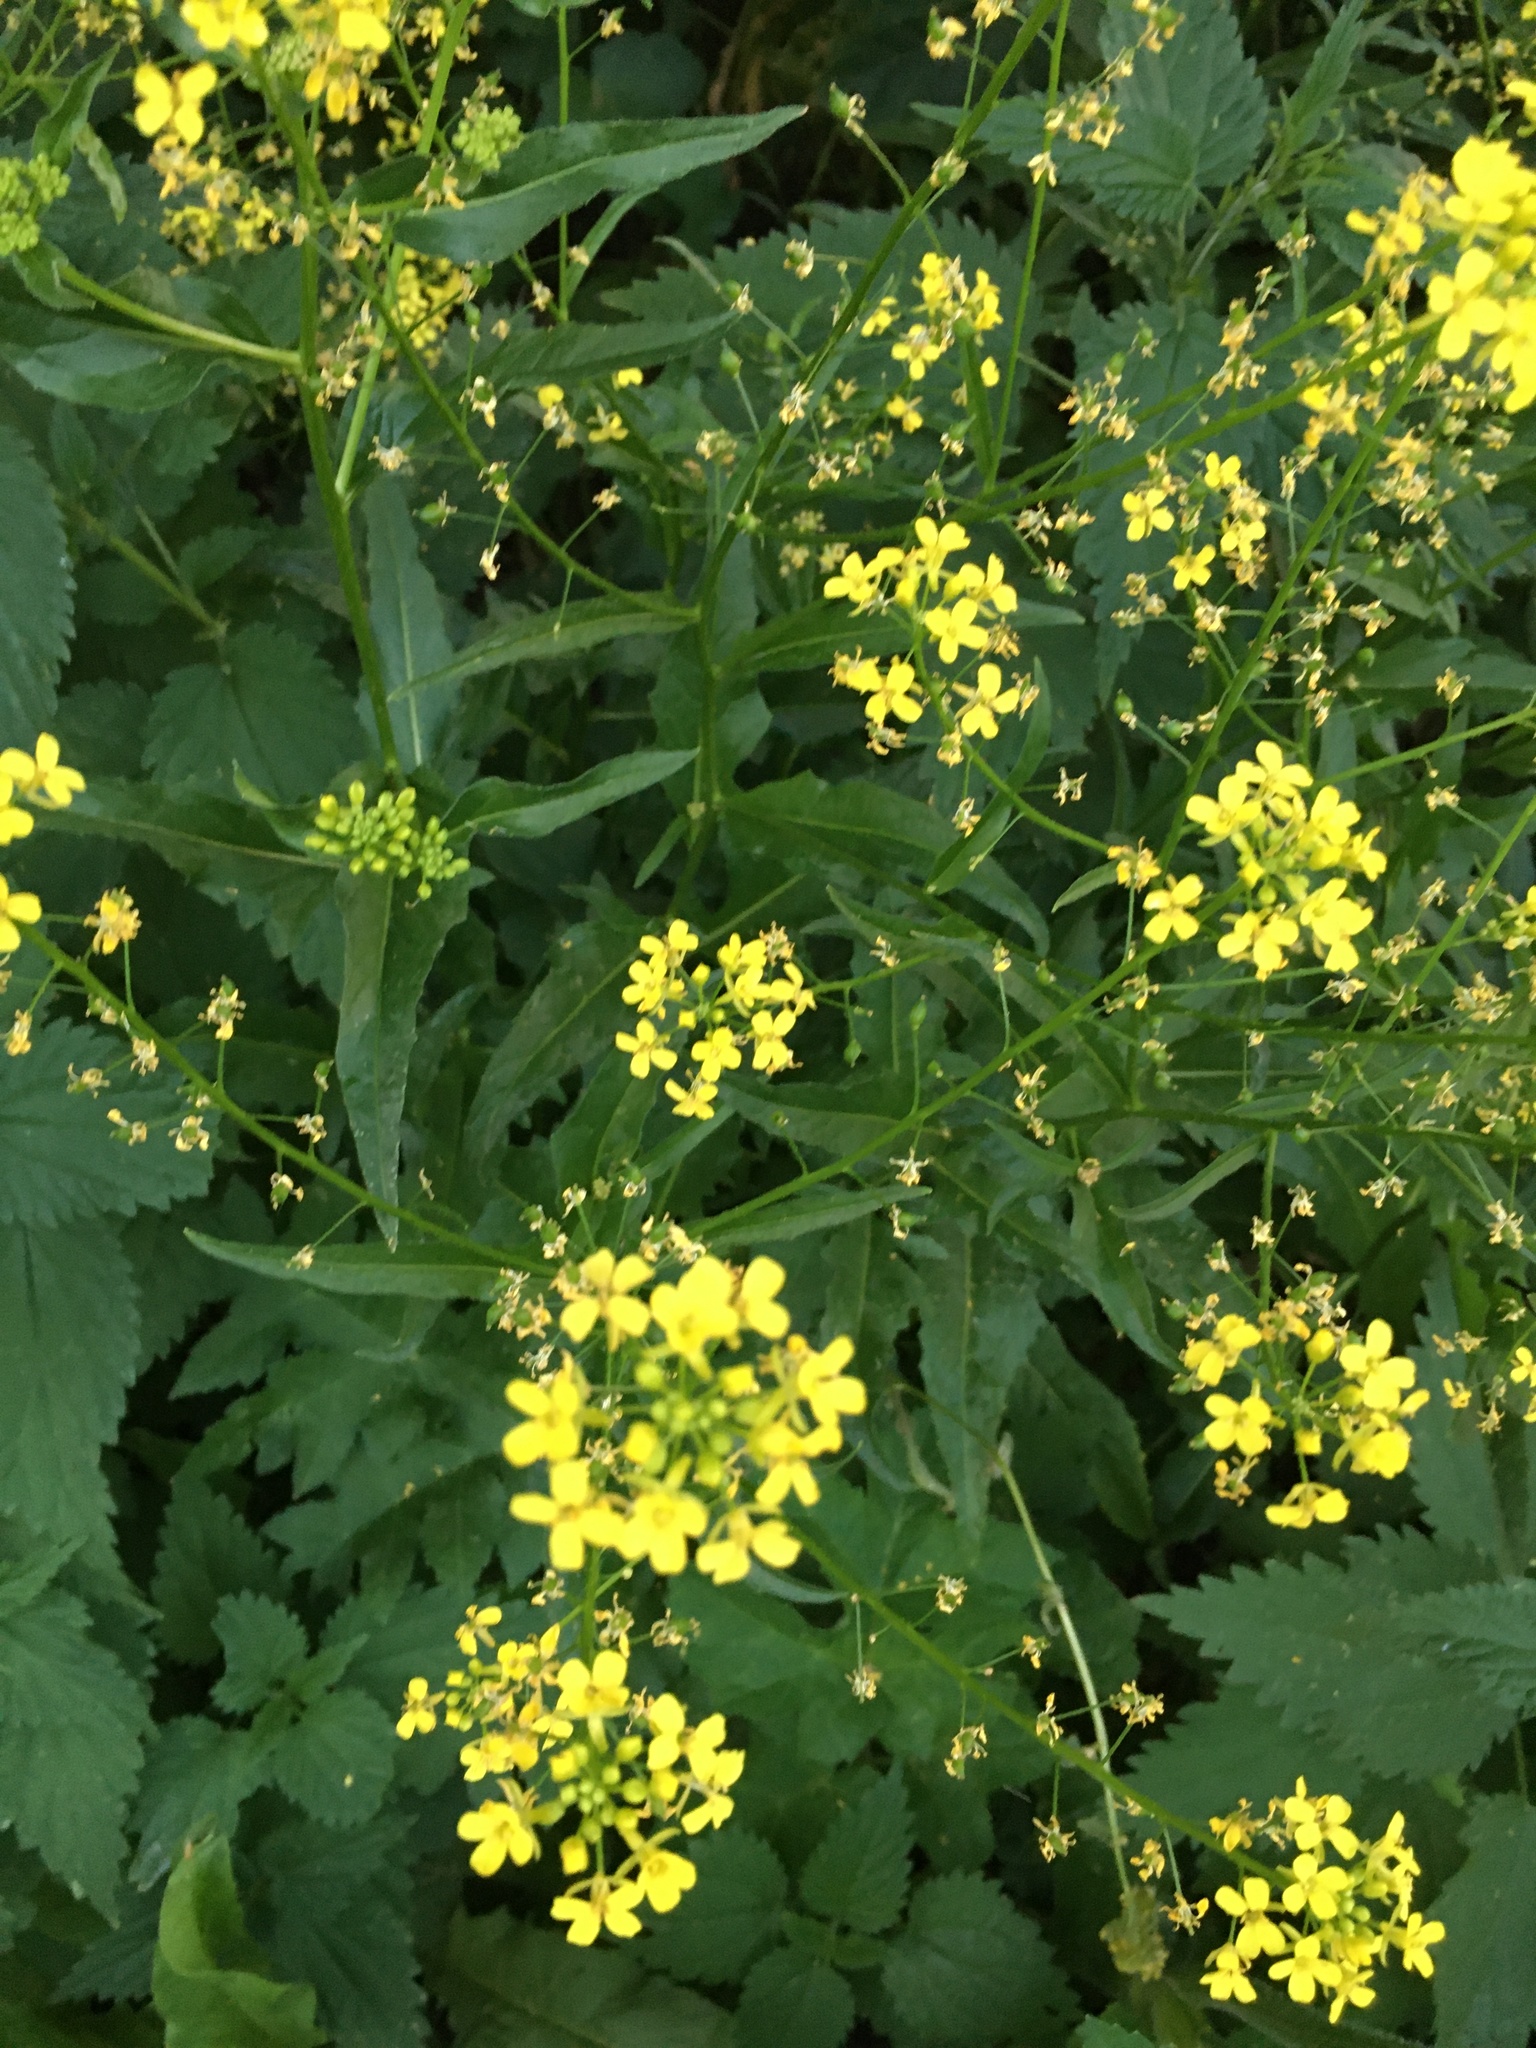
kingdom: Plantae
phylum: Tracheophyta
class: Magnoliopsida
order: Brassicales
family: Brassicaceae
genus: Bunias
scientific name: Bunias orientalis
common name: Warty-cabbage
